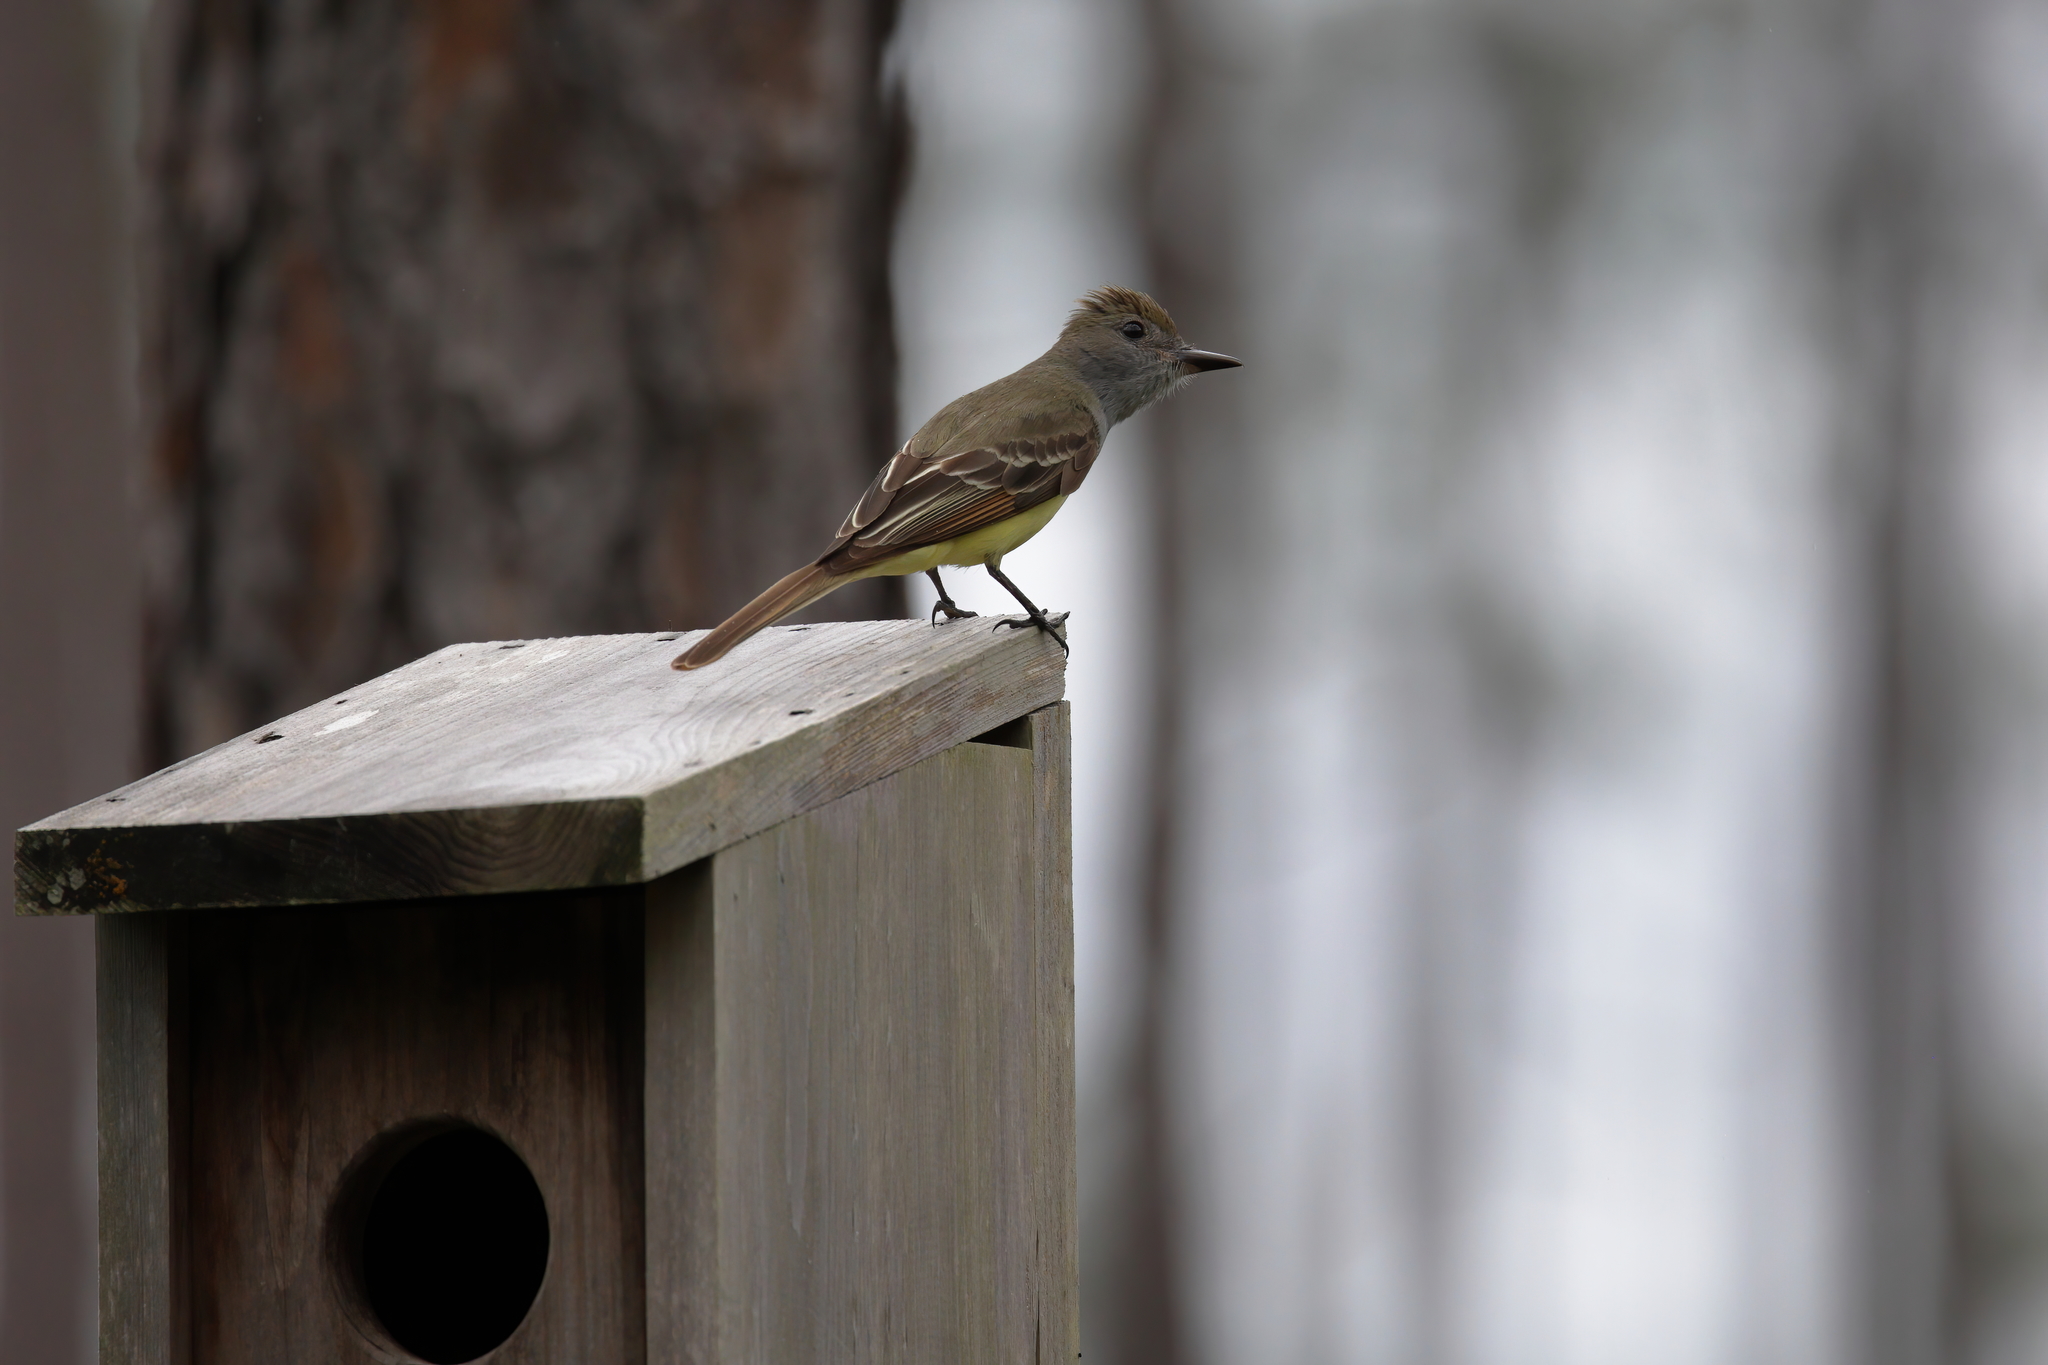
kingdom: Animalia
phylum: Chordata
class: Aves
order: Passeriformes
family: Tyrannidae
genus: Myiarchus
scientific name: Myiarchus crinitus
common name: Great crested flycatcher
